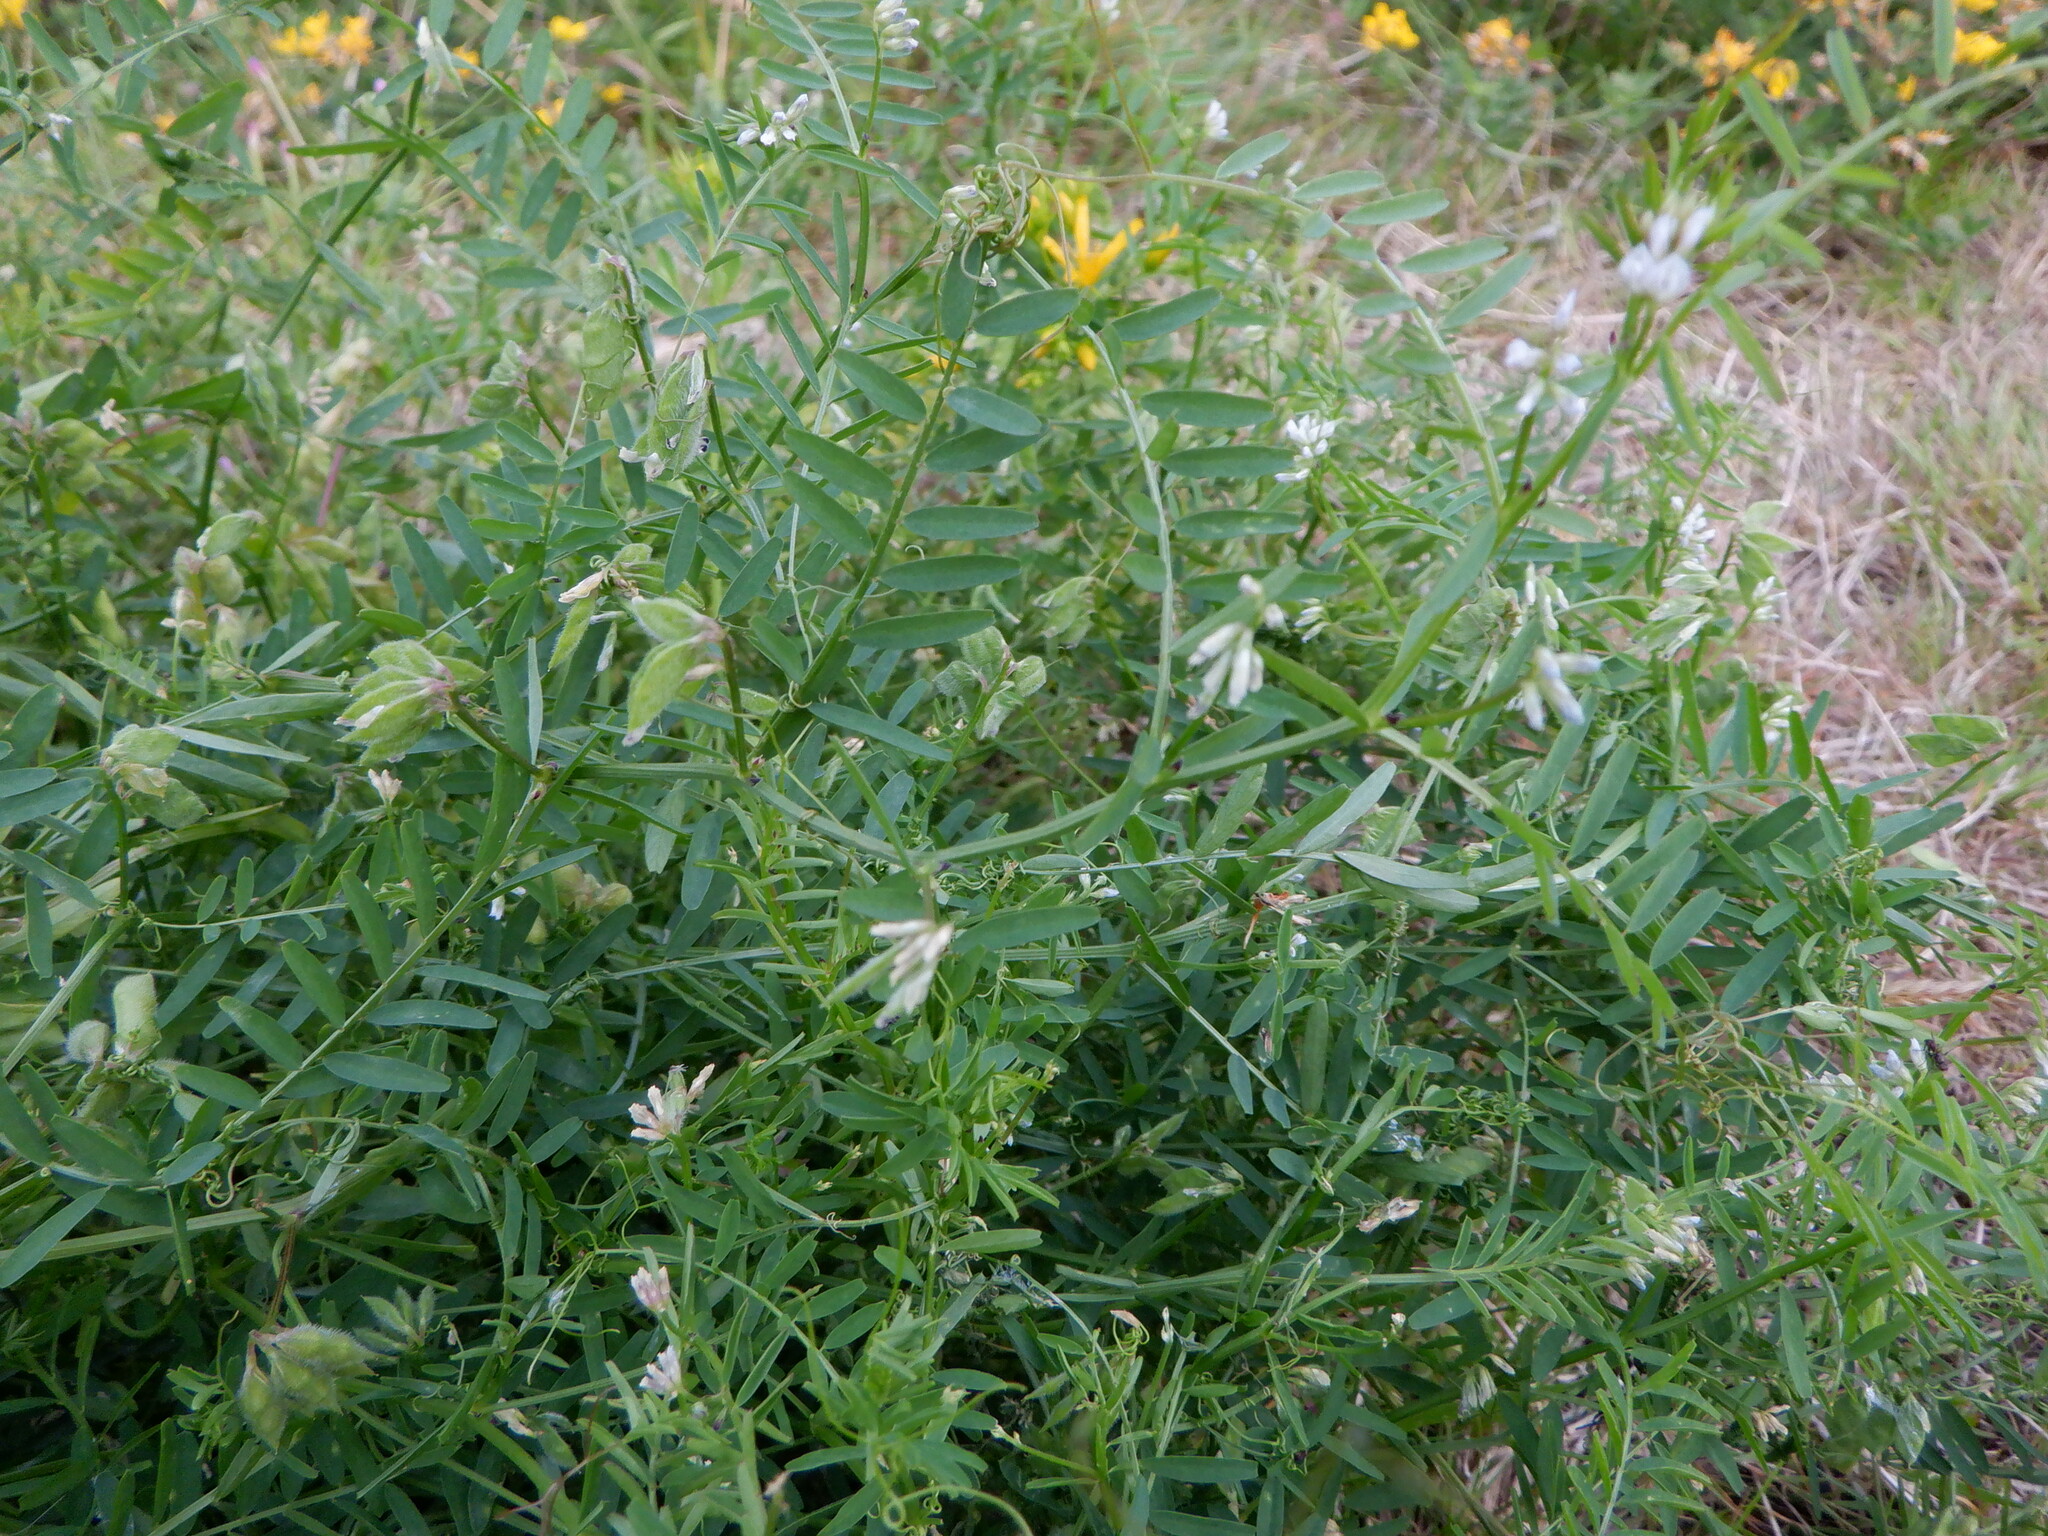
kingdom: Plantae
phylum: Tracheophyta
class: Magnoliopsida
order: Fabales
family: Fabaceae
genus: Vicia
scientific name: Vicia hirsuta
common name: Tiny vetch
